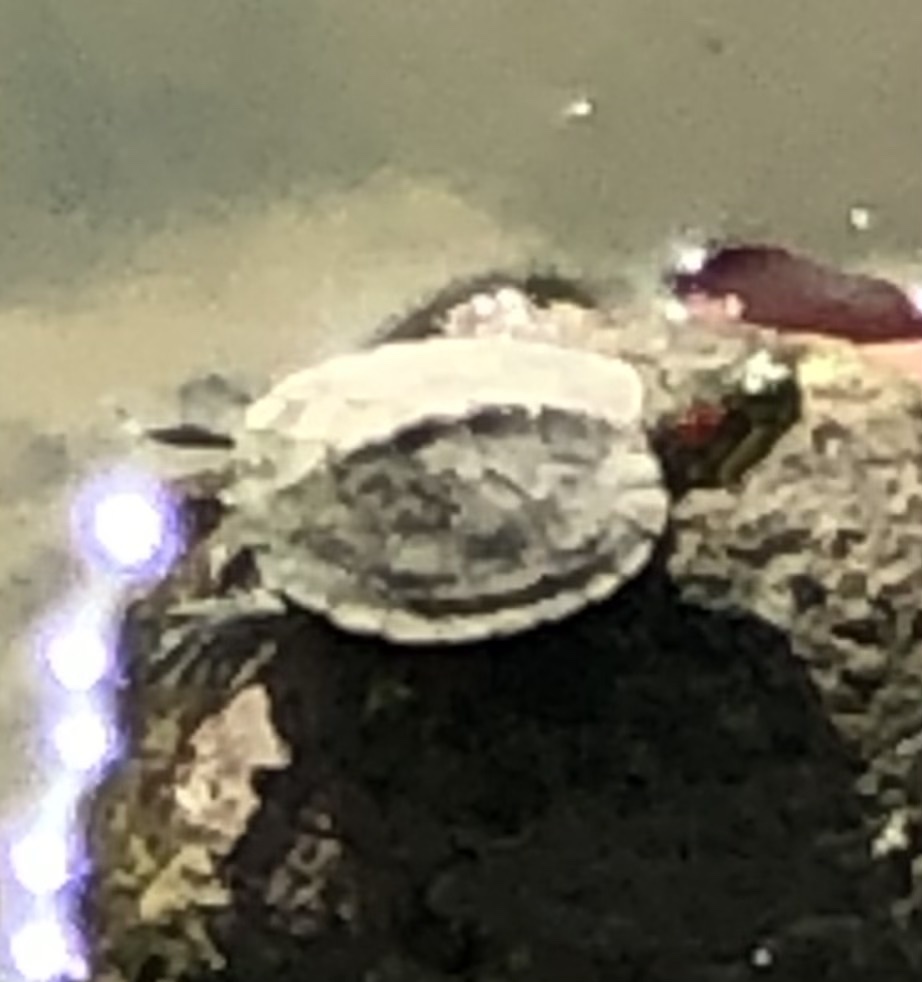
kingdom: Animalia
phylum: Chordata
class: Testudines
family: Emydidae
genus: Trachemys
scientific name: Trachemys scripta
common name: Slider
